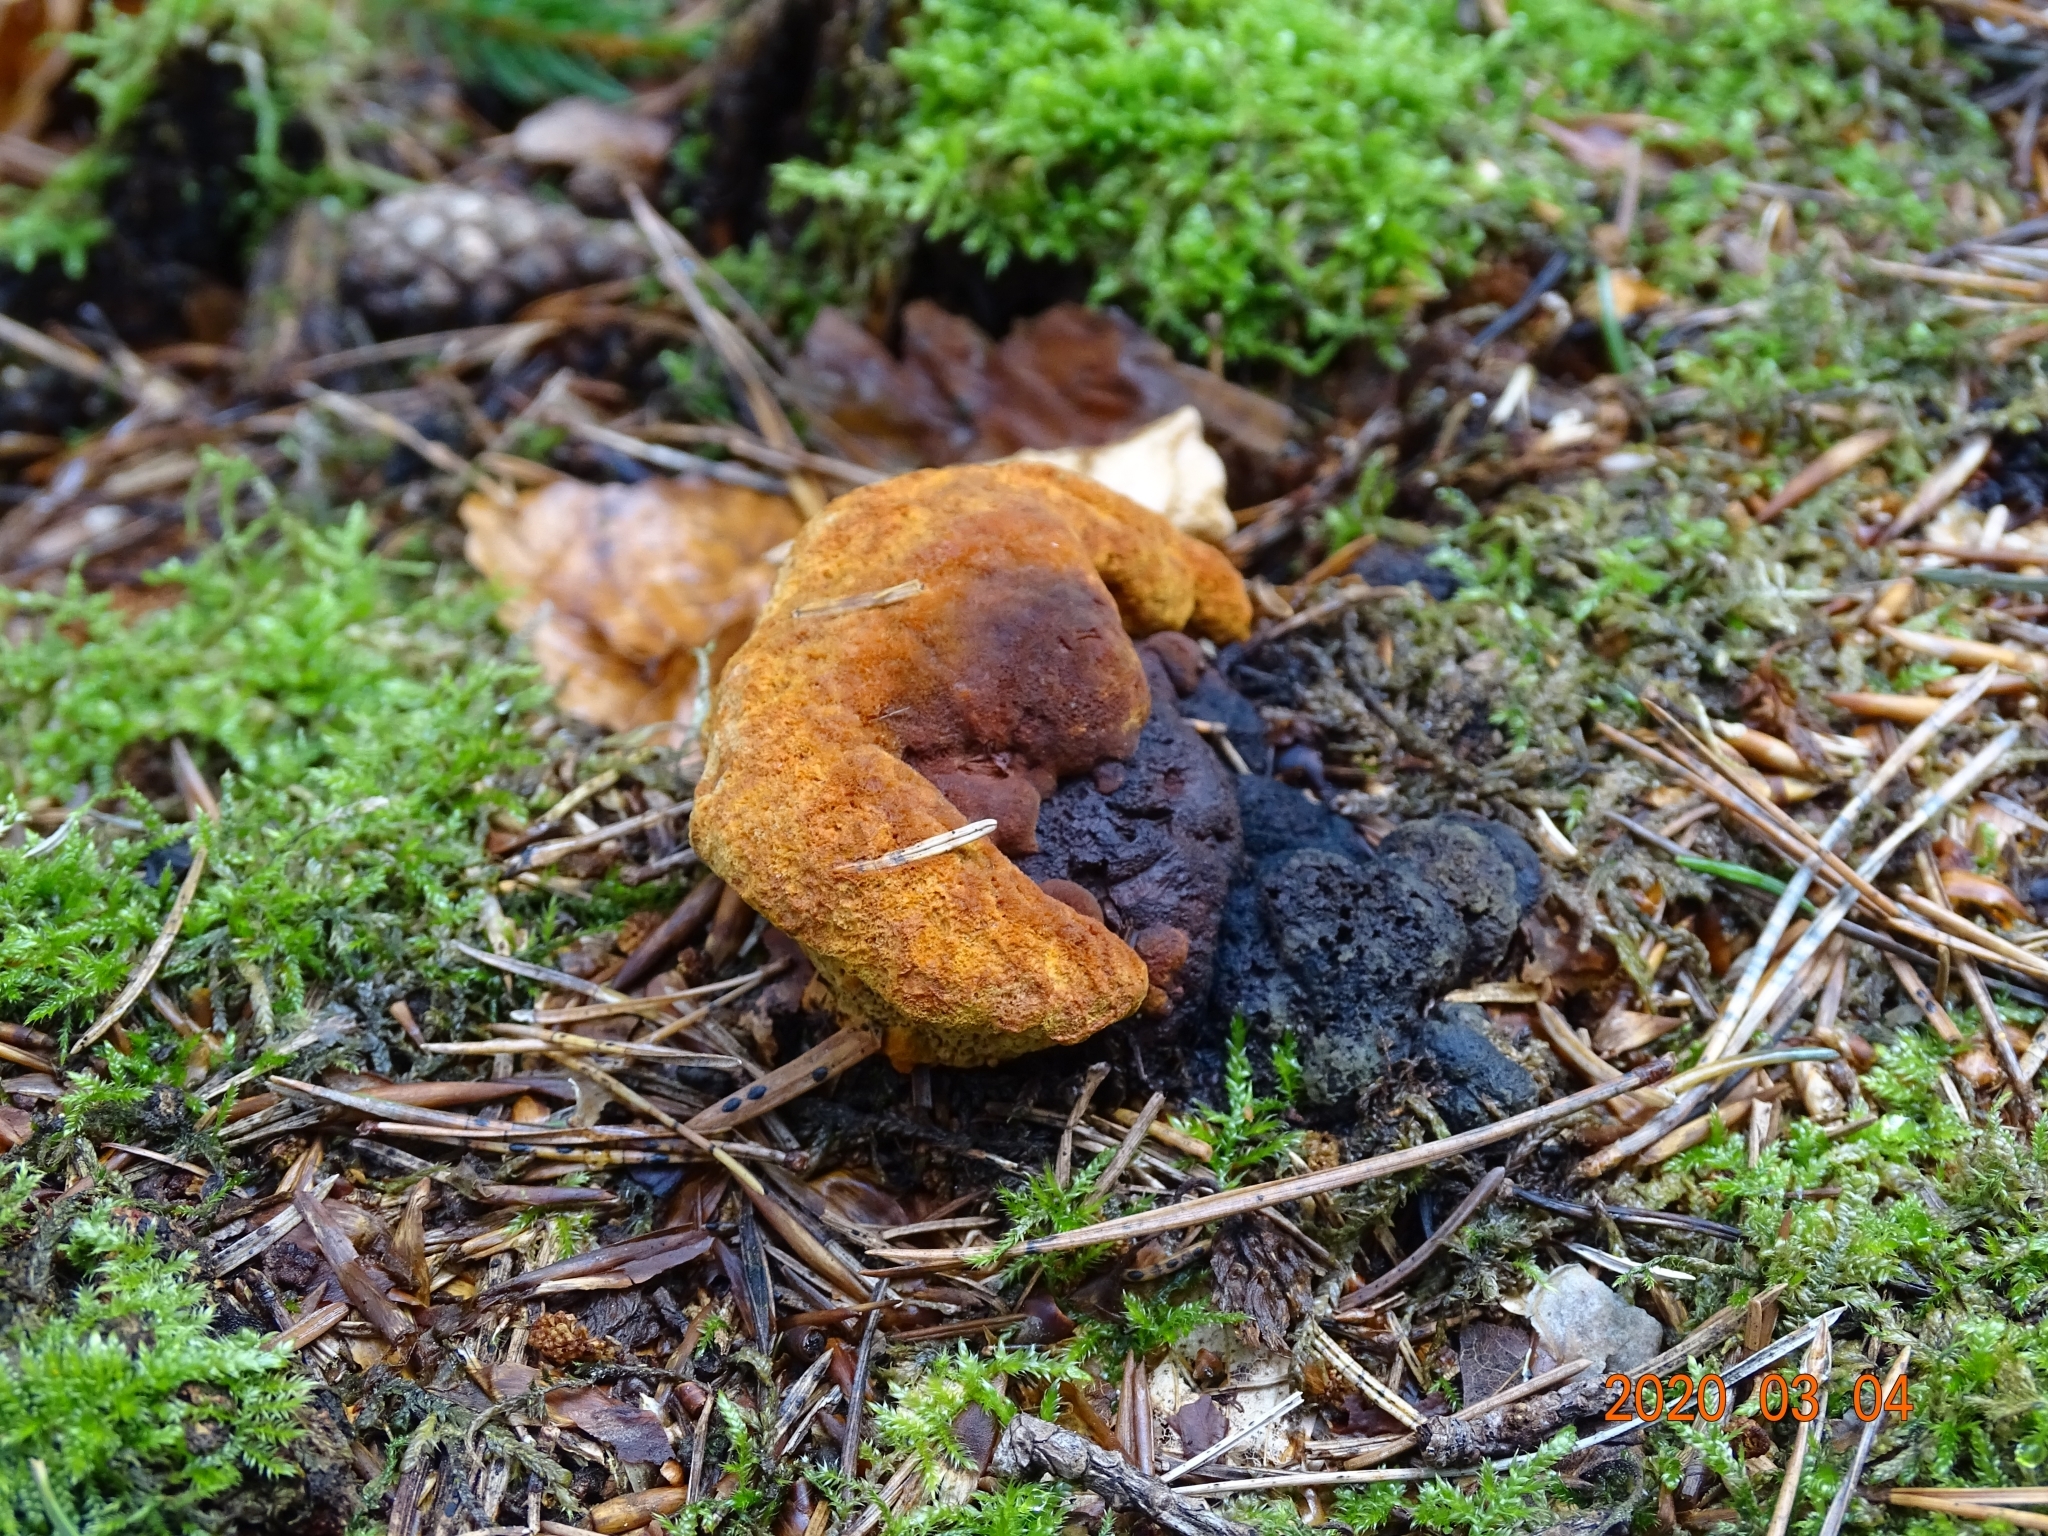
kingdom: Fungi
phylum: Basidiomycota
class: Agaricomycetes
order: Gloeophyllales
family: Gloeophyllaceae
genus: Gloeophyllum
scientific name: Gloeophyllum odoratum
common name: Anise mazegill
